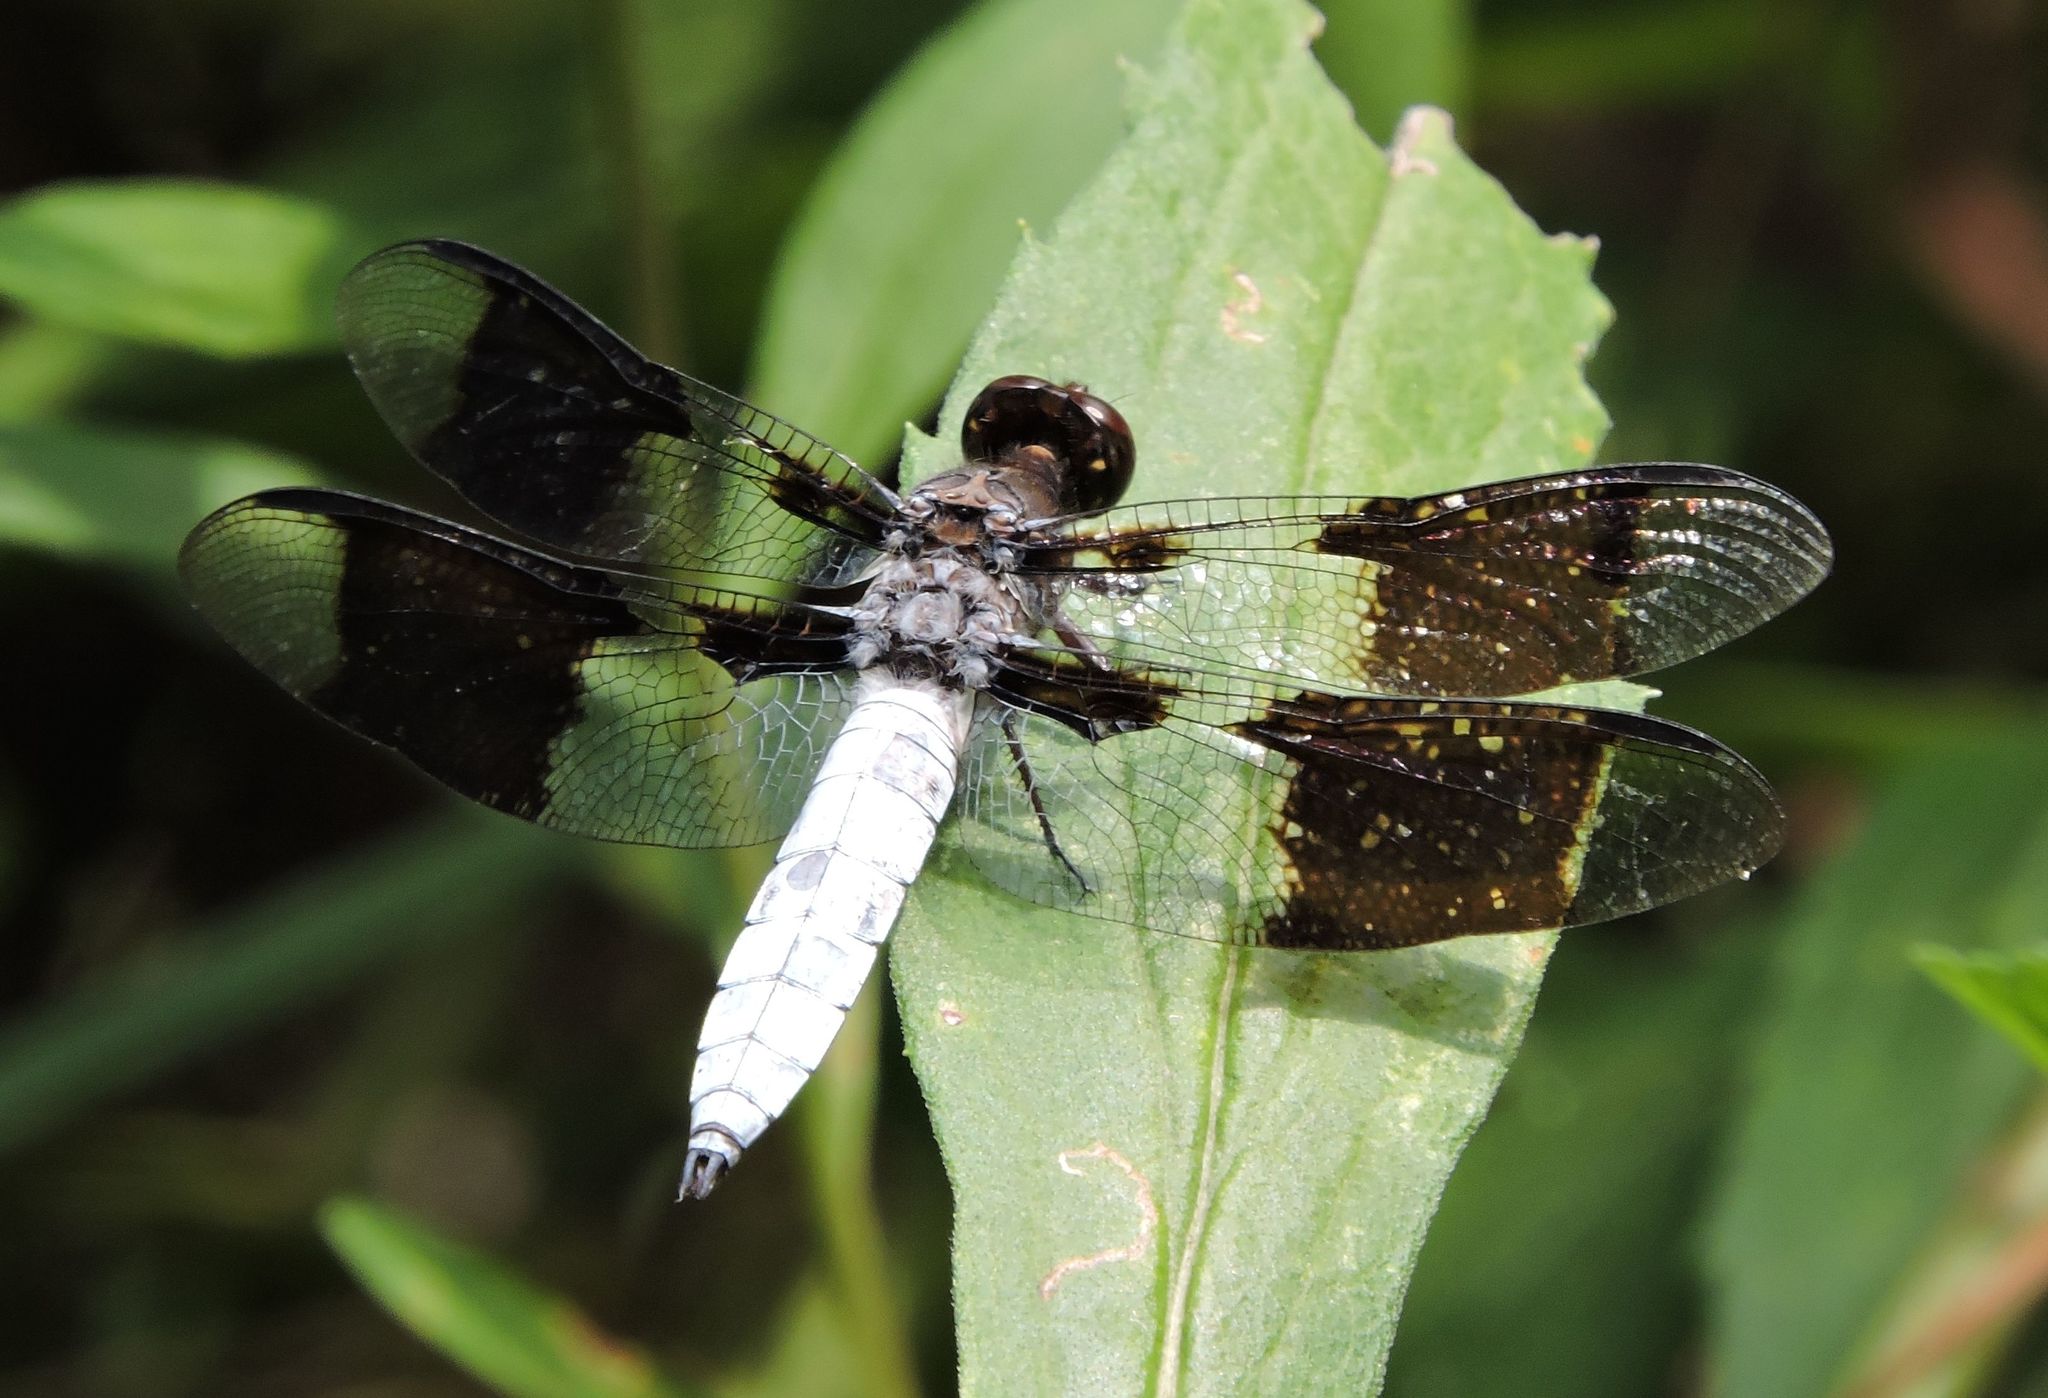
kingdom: Animalia
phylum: Arthropoda
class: Insecta
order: Odonata
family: Libellulidae
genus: Plathemis
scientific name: Plathemis lydia
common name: Common whitetail
